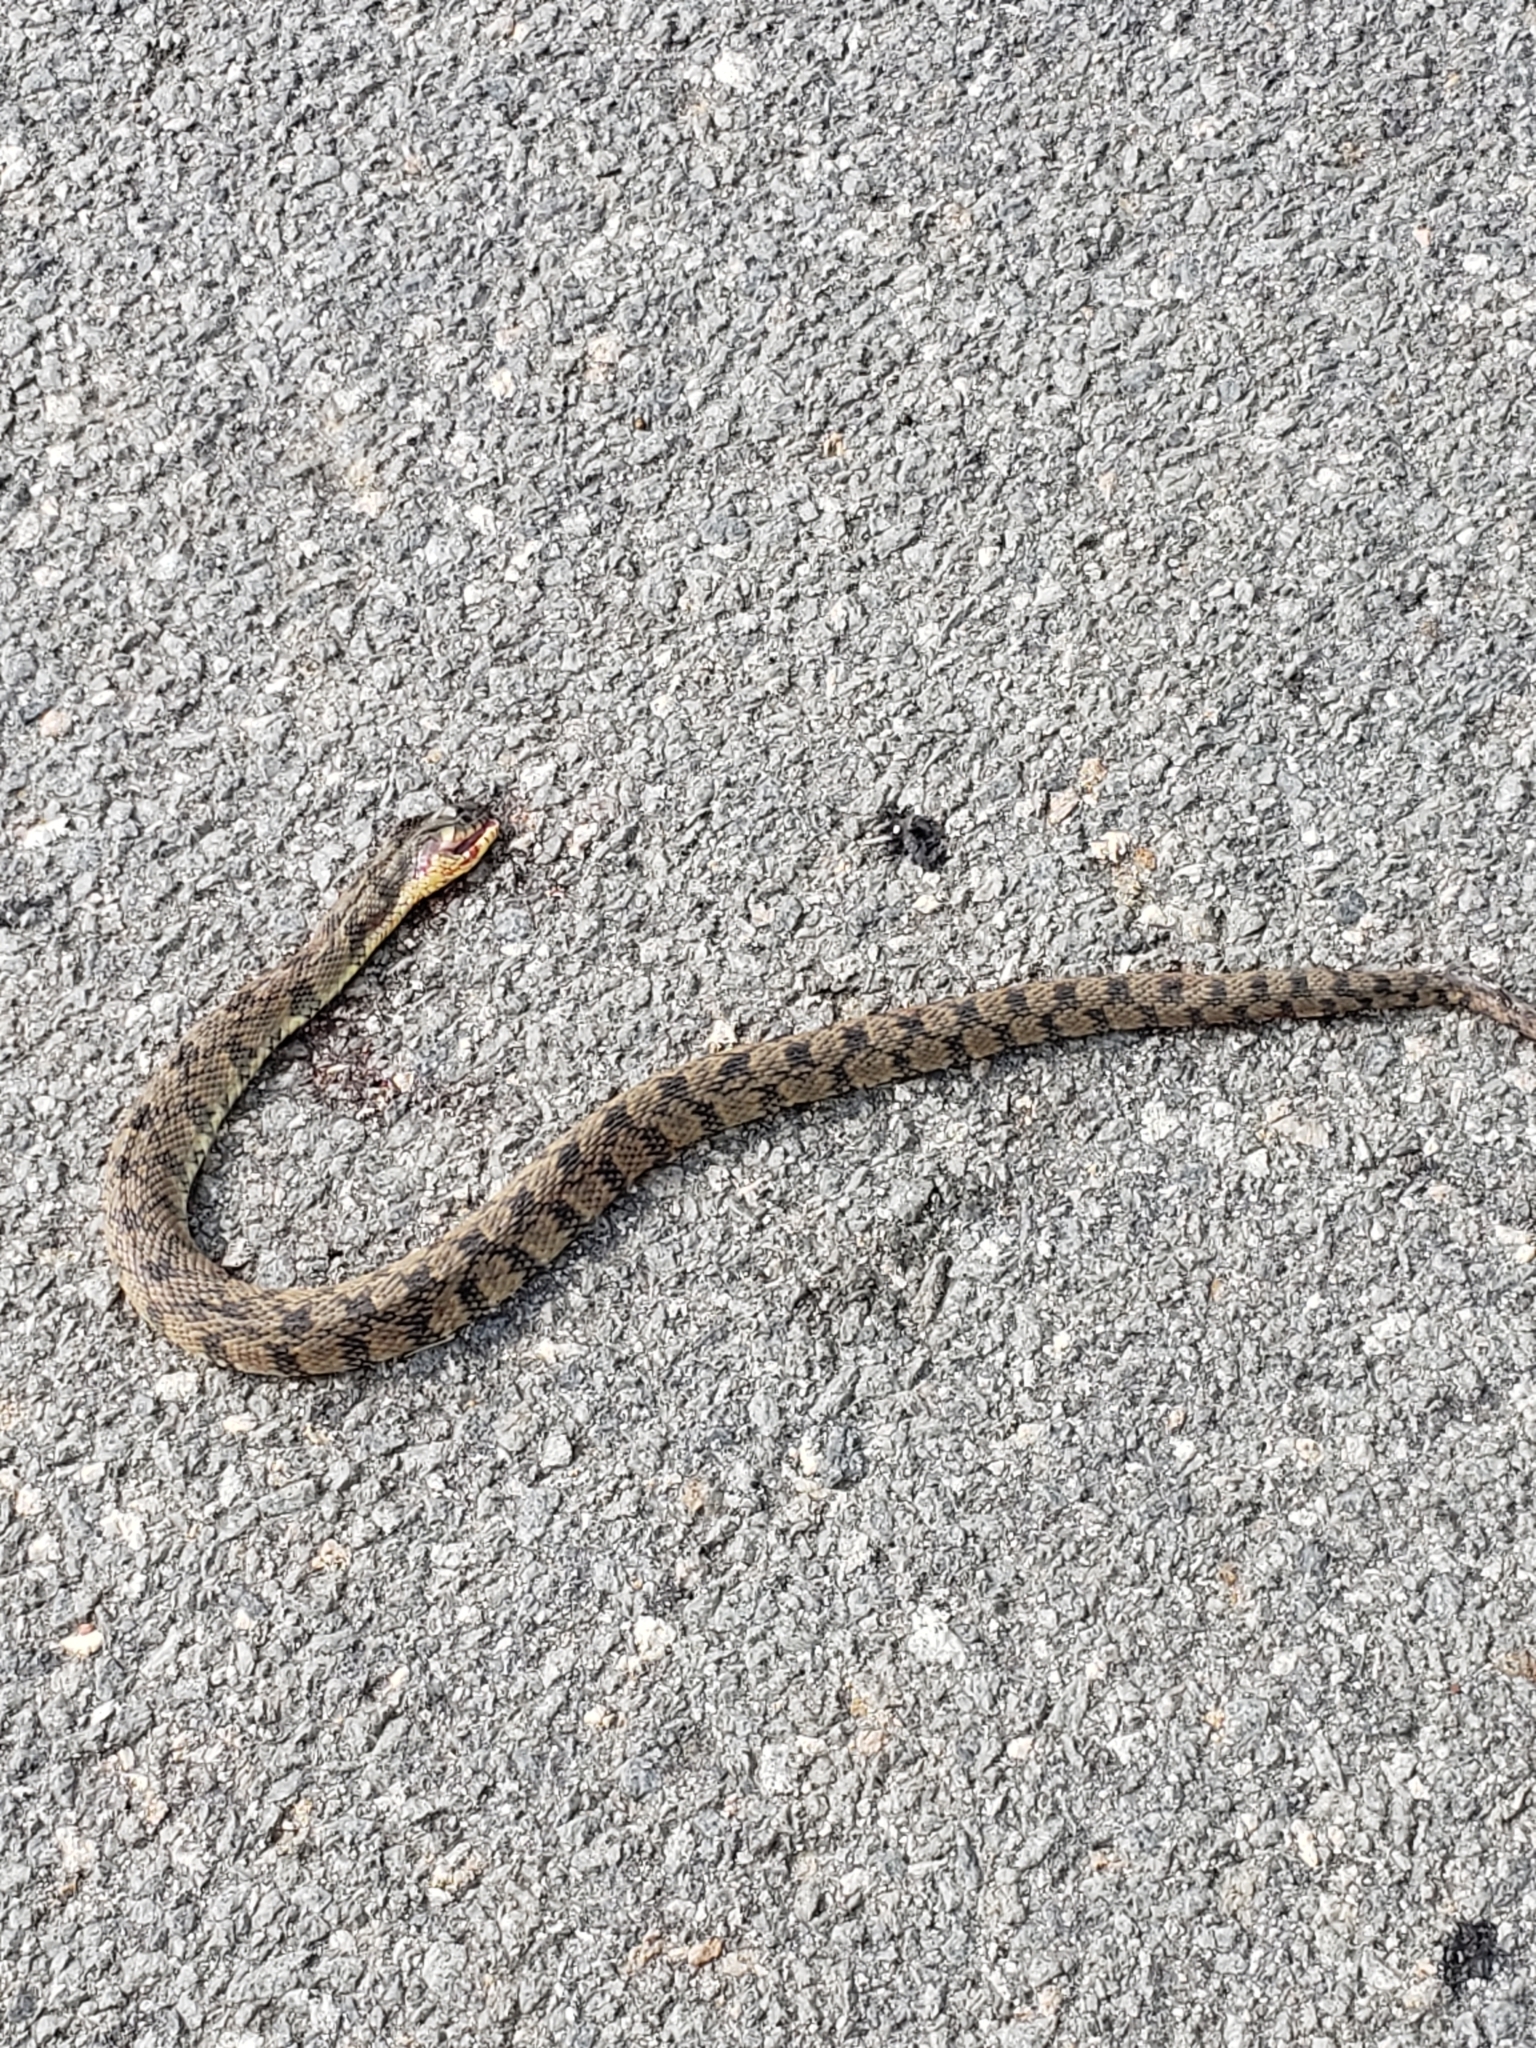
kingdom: Animalia
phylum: Chordata
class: Squamata
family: Colubridae
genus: Nerodia
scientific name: Nerodia rhombifer
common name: Diamondback water snake
